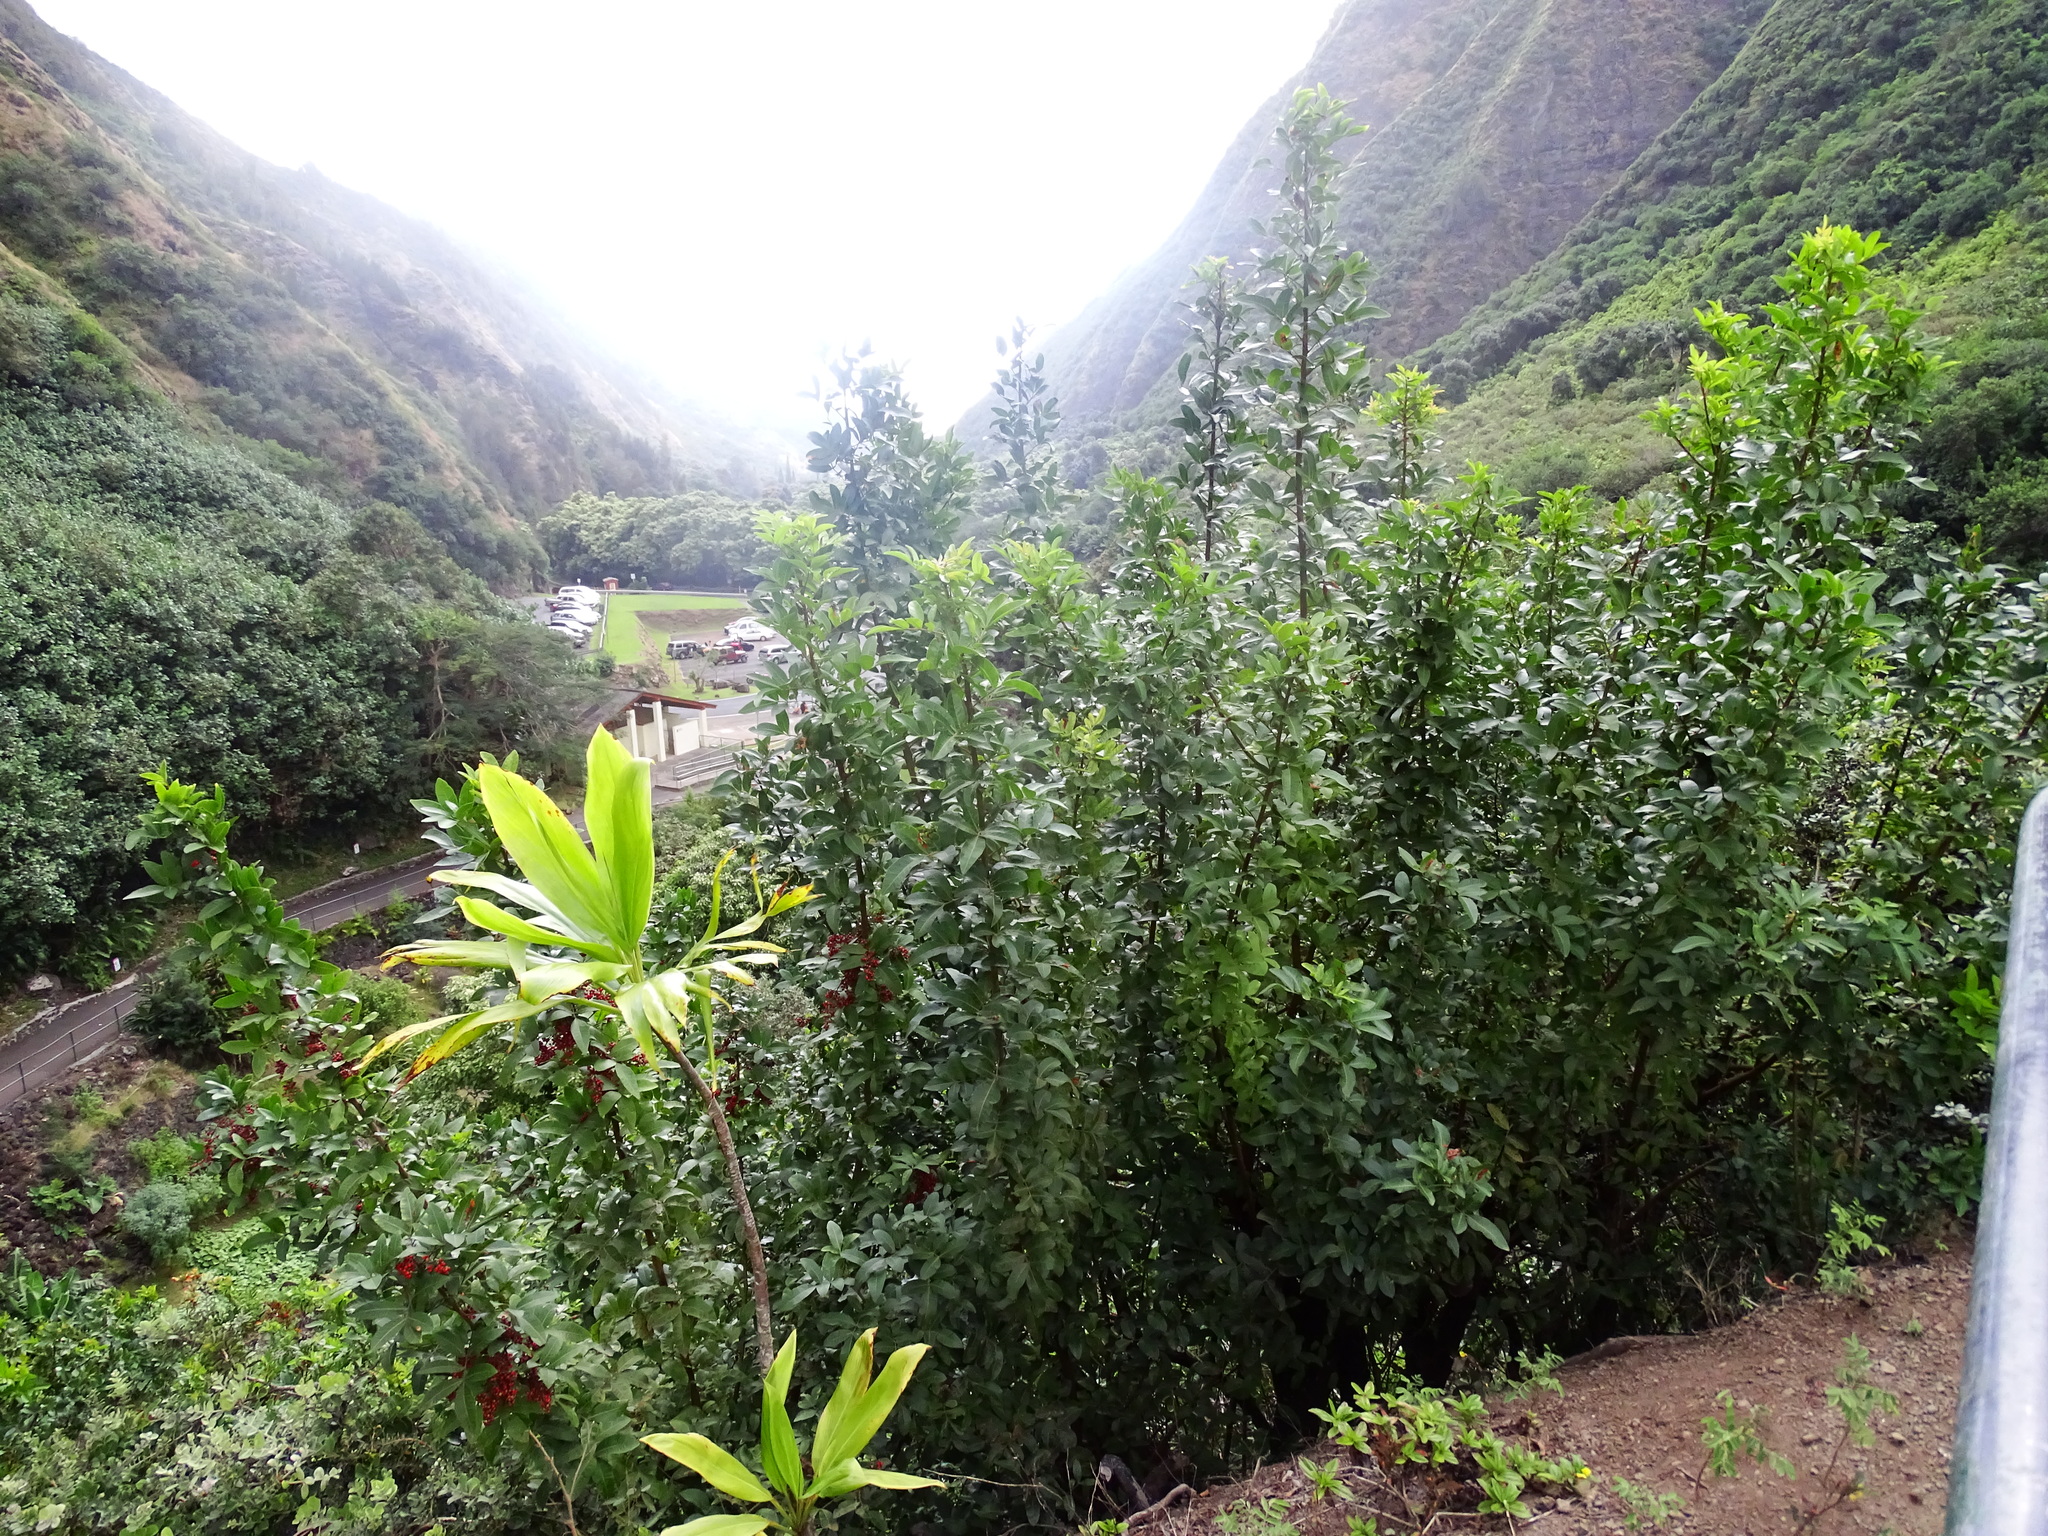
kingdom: Plantae
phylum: Tracheophyta
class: Magnoliopsida
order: Sapindales
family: Anacardiaceae
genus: Schinus
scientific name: Schinus terebinthifolia
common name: Brazilian peppertree
